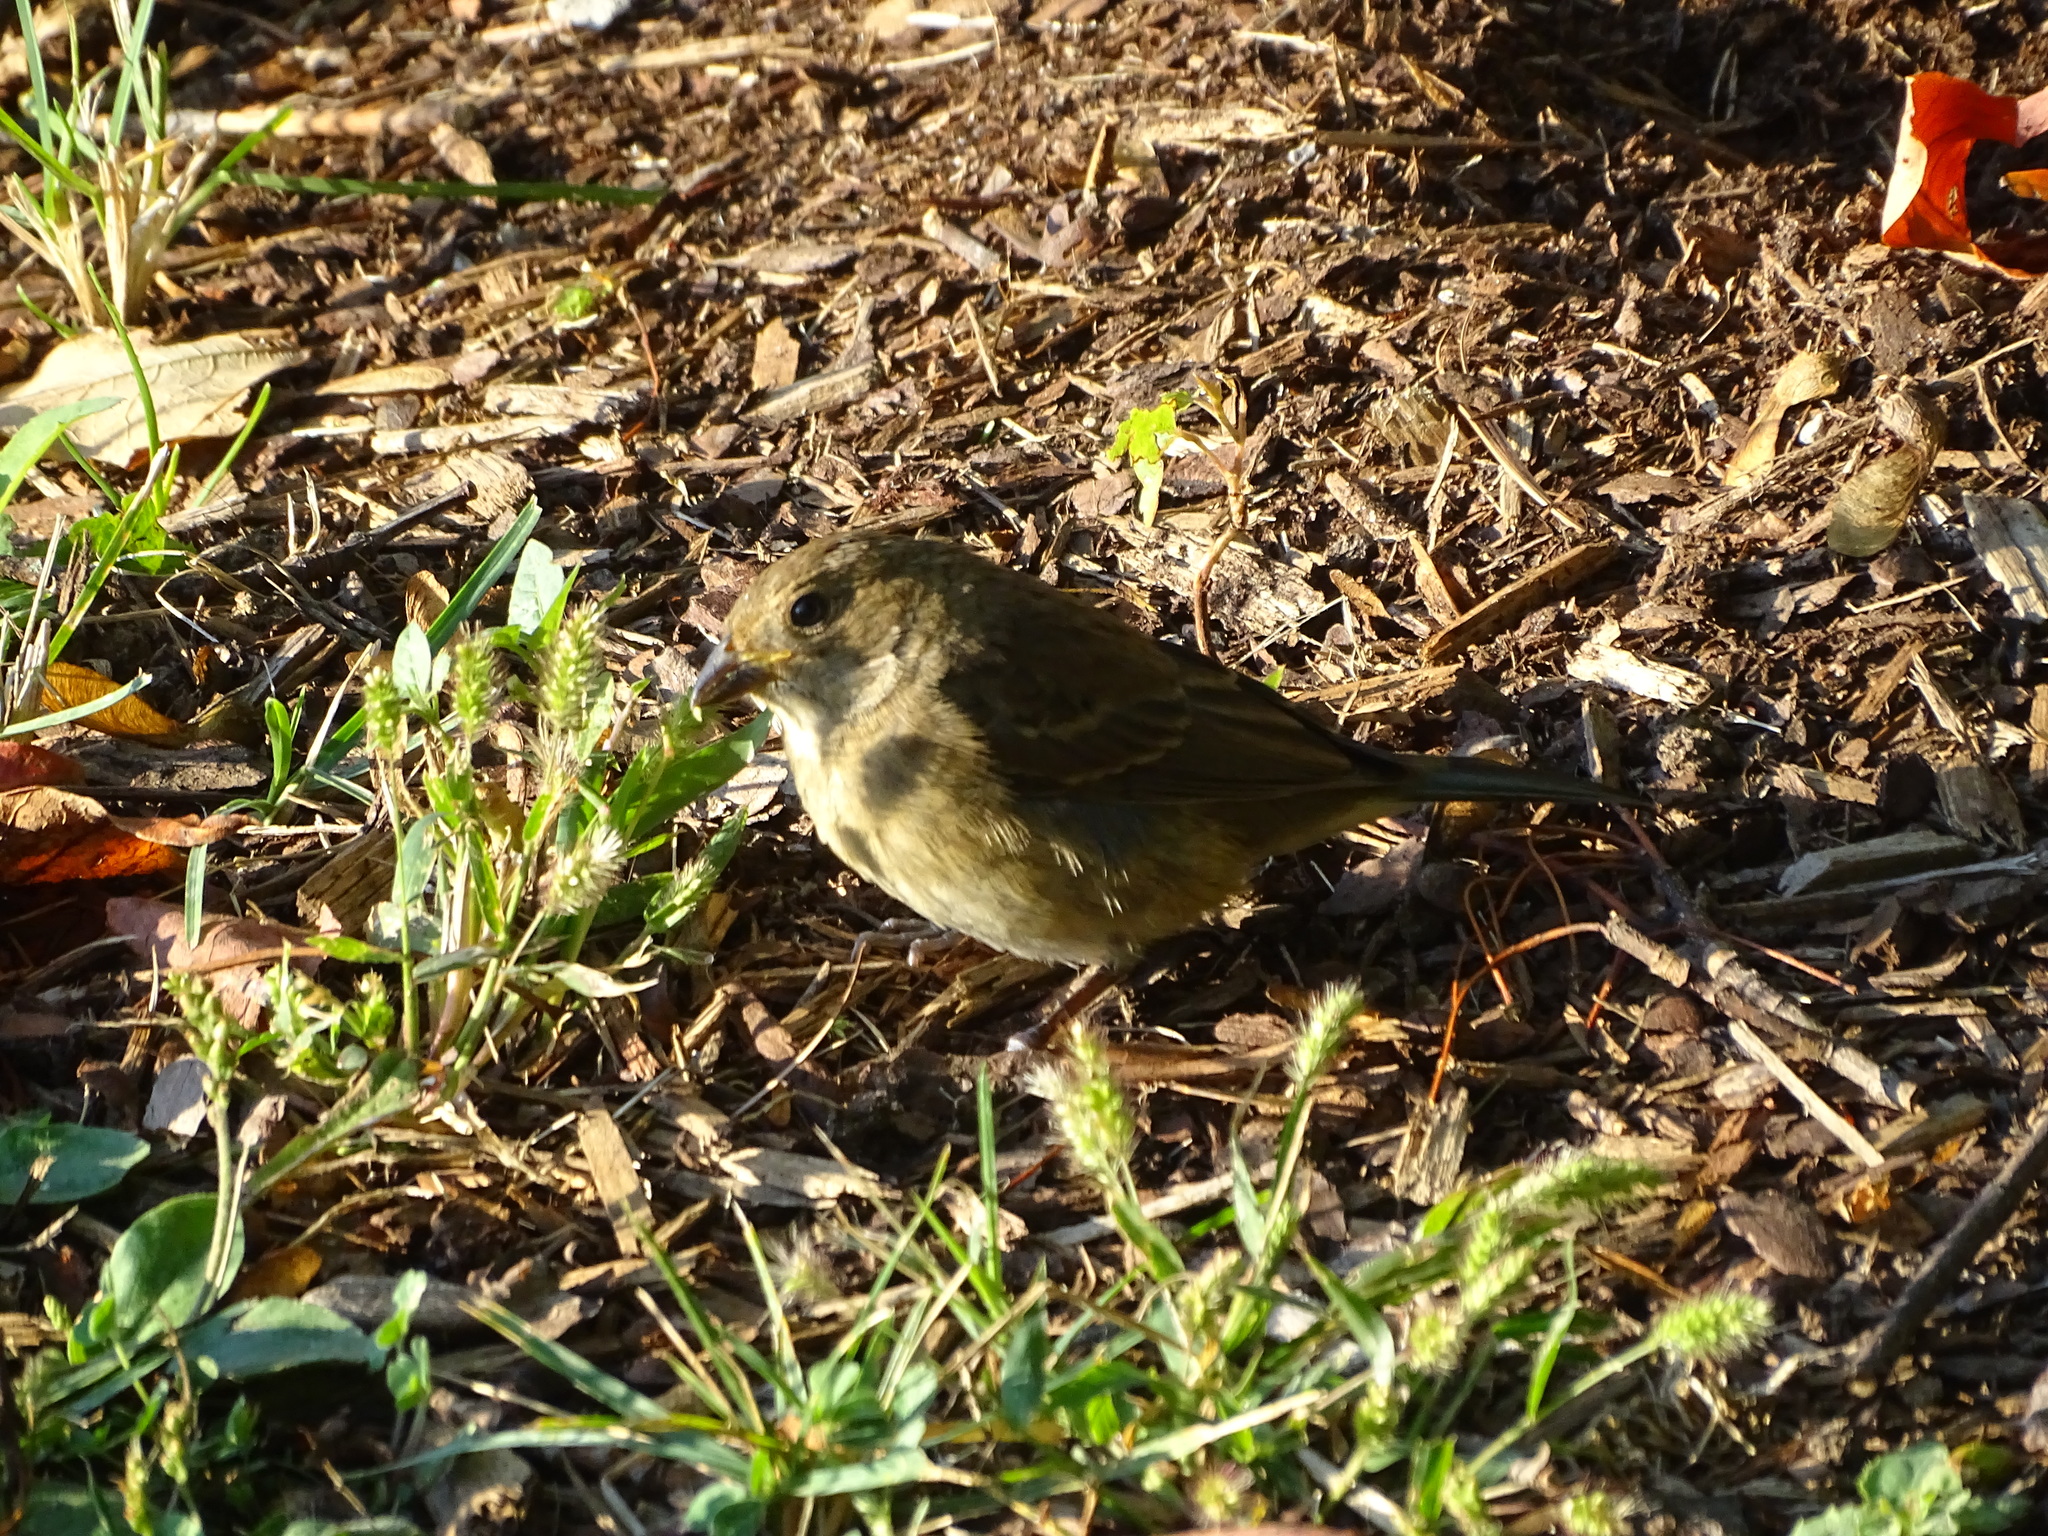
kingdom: Animalia
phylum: Chordata
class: Aves
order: Passeriformes
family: Cardinalidae
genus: Passerina
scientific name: Passerina cyanea
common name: Indigo bunting
